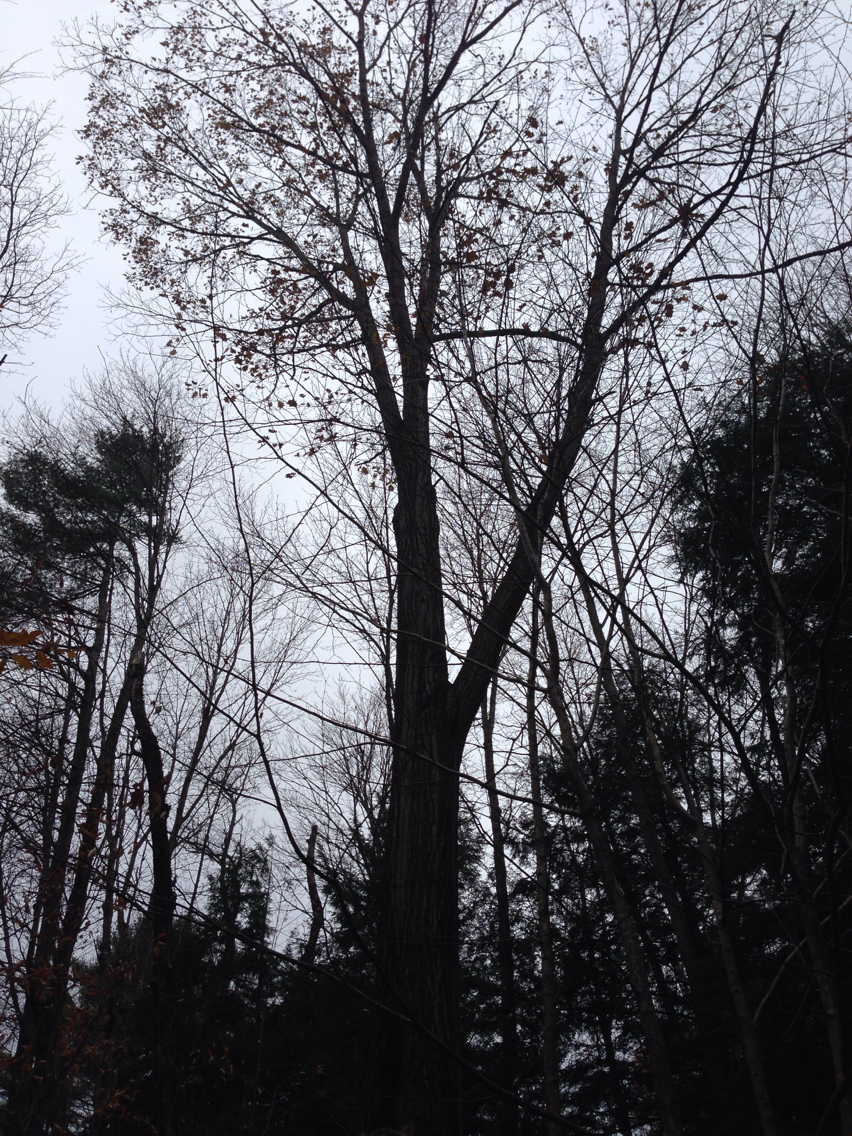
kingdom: Plantae
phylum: Tracheophyta
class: Magnoliopsida
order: Fagales
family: Fagaceae
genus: Quercus
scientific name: Quercus rubra
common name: Red oak
